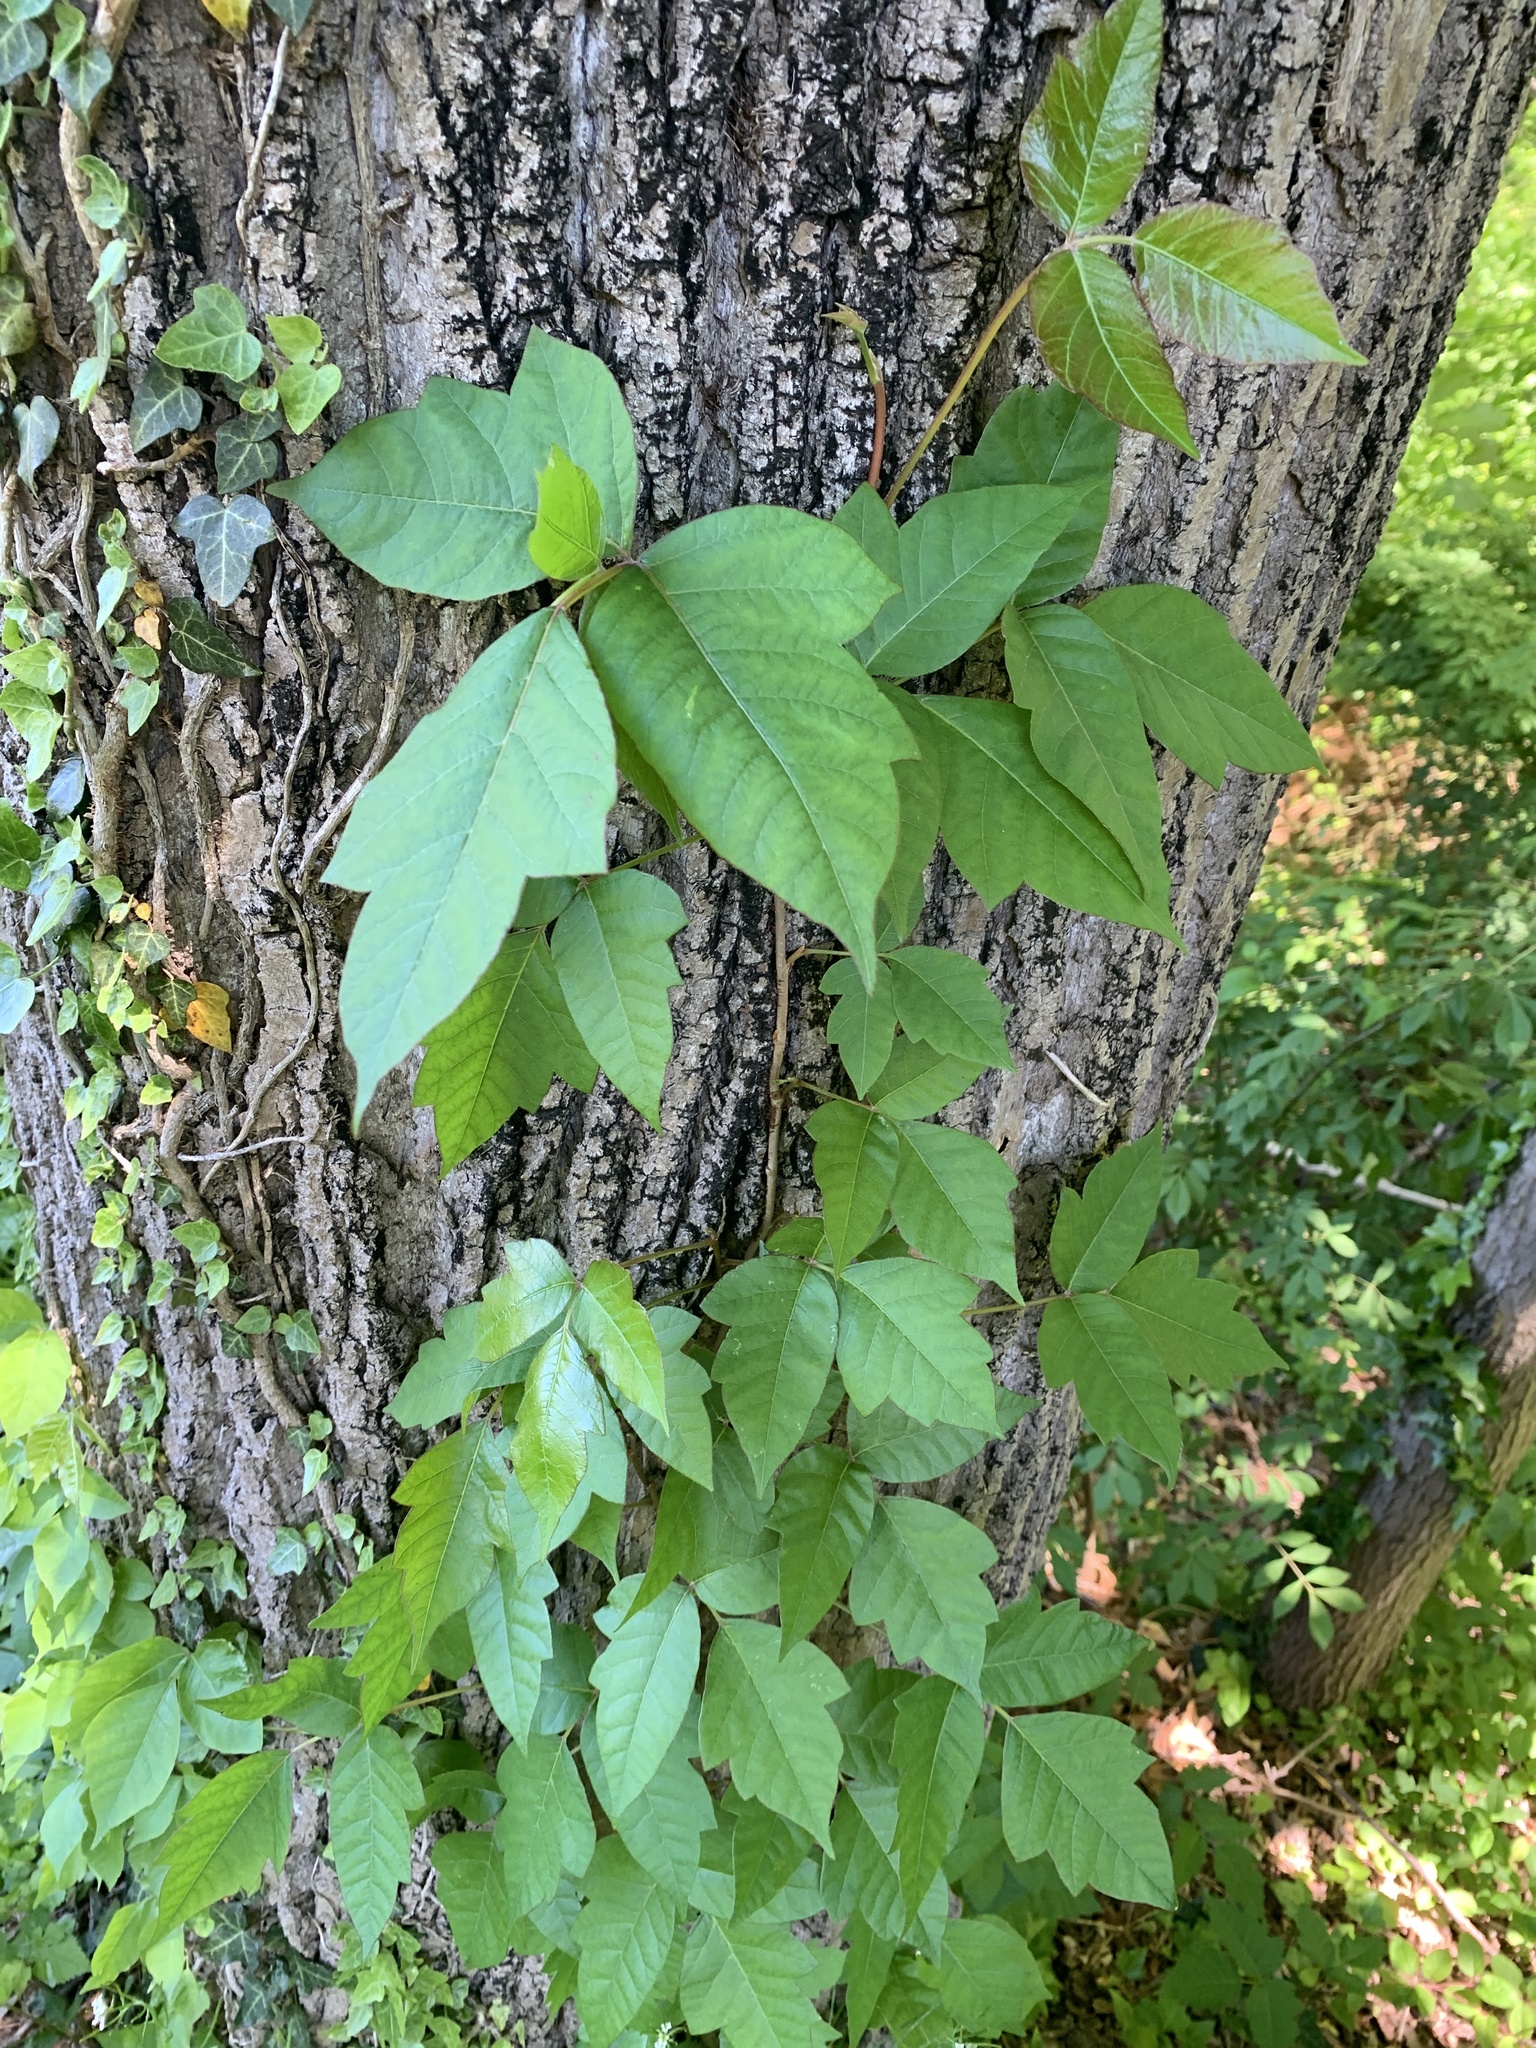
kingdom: Plantae
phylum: Tracheophyta
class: Magnoliopsida
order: Sapindales
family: Anacardiaceae
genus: Toxicodendron
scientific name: Toxicodendron radicans
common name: Poison ivy
